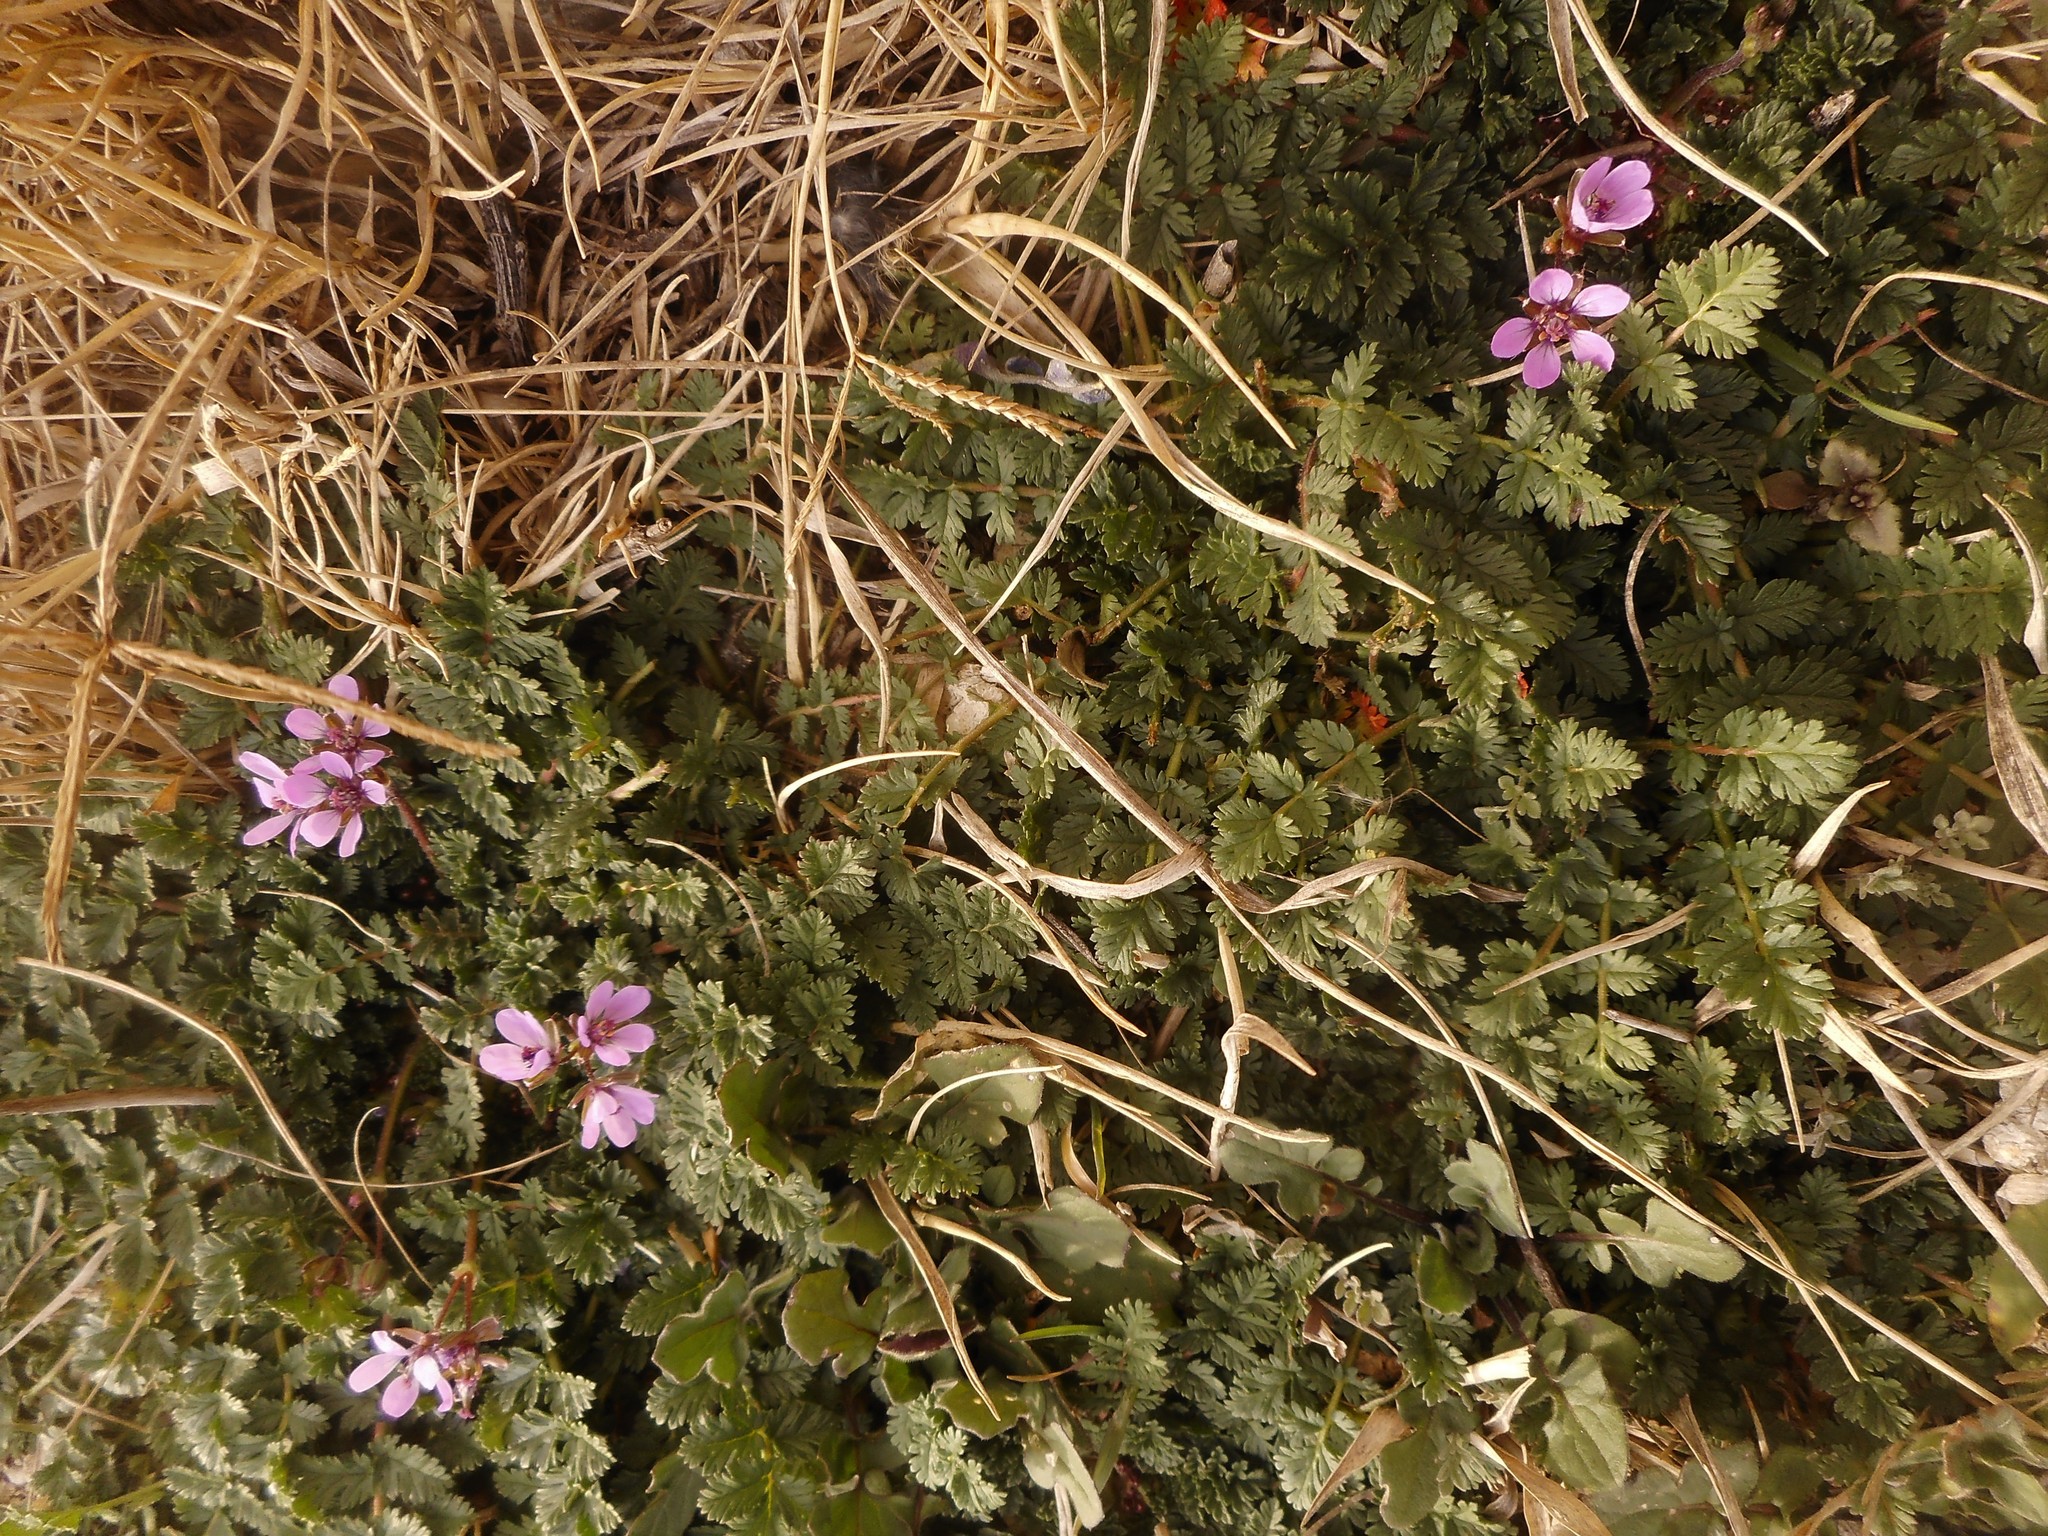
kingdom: Plantae
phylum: Tracheophyta
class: Magnoliopsida
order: Geraniales
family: Geraniaceae
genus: Erodium
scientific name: Erodium cicutarium
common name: Common stork's-bill
